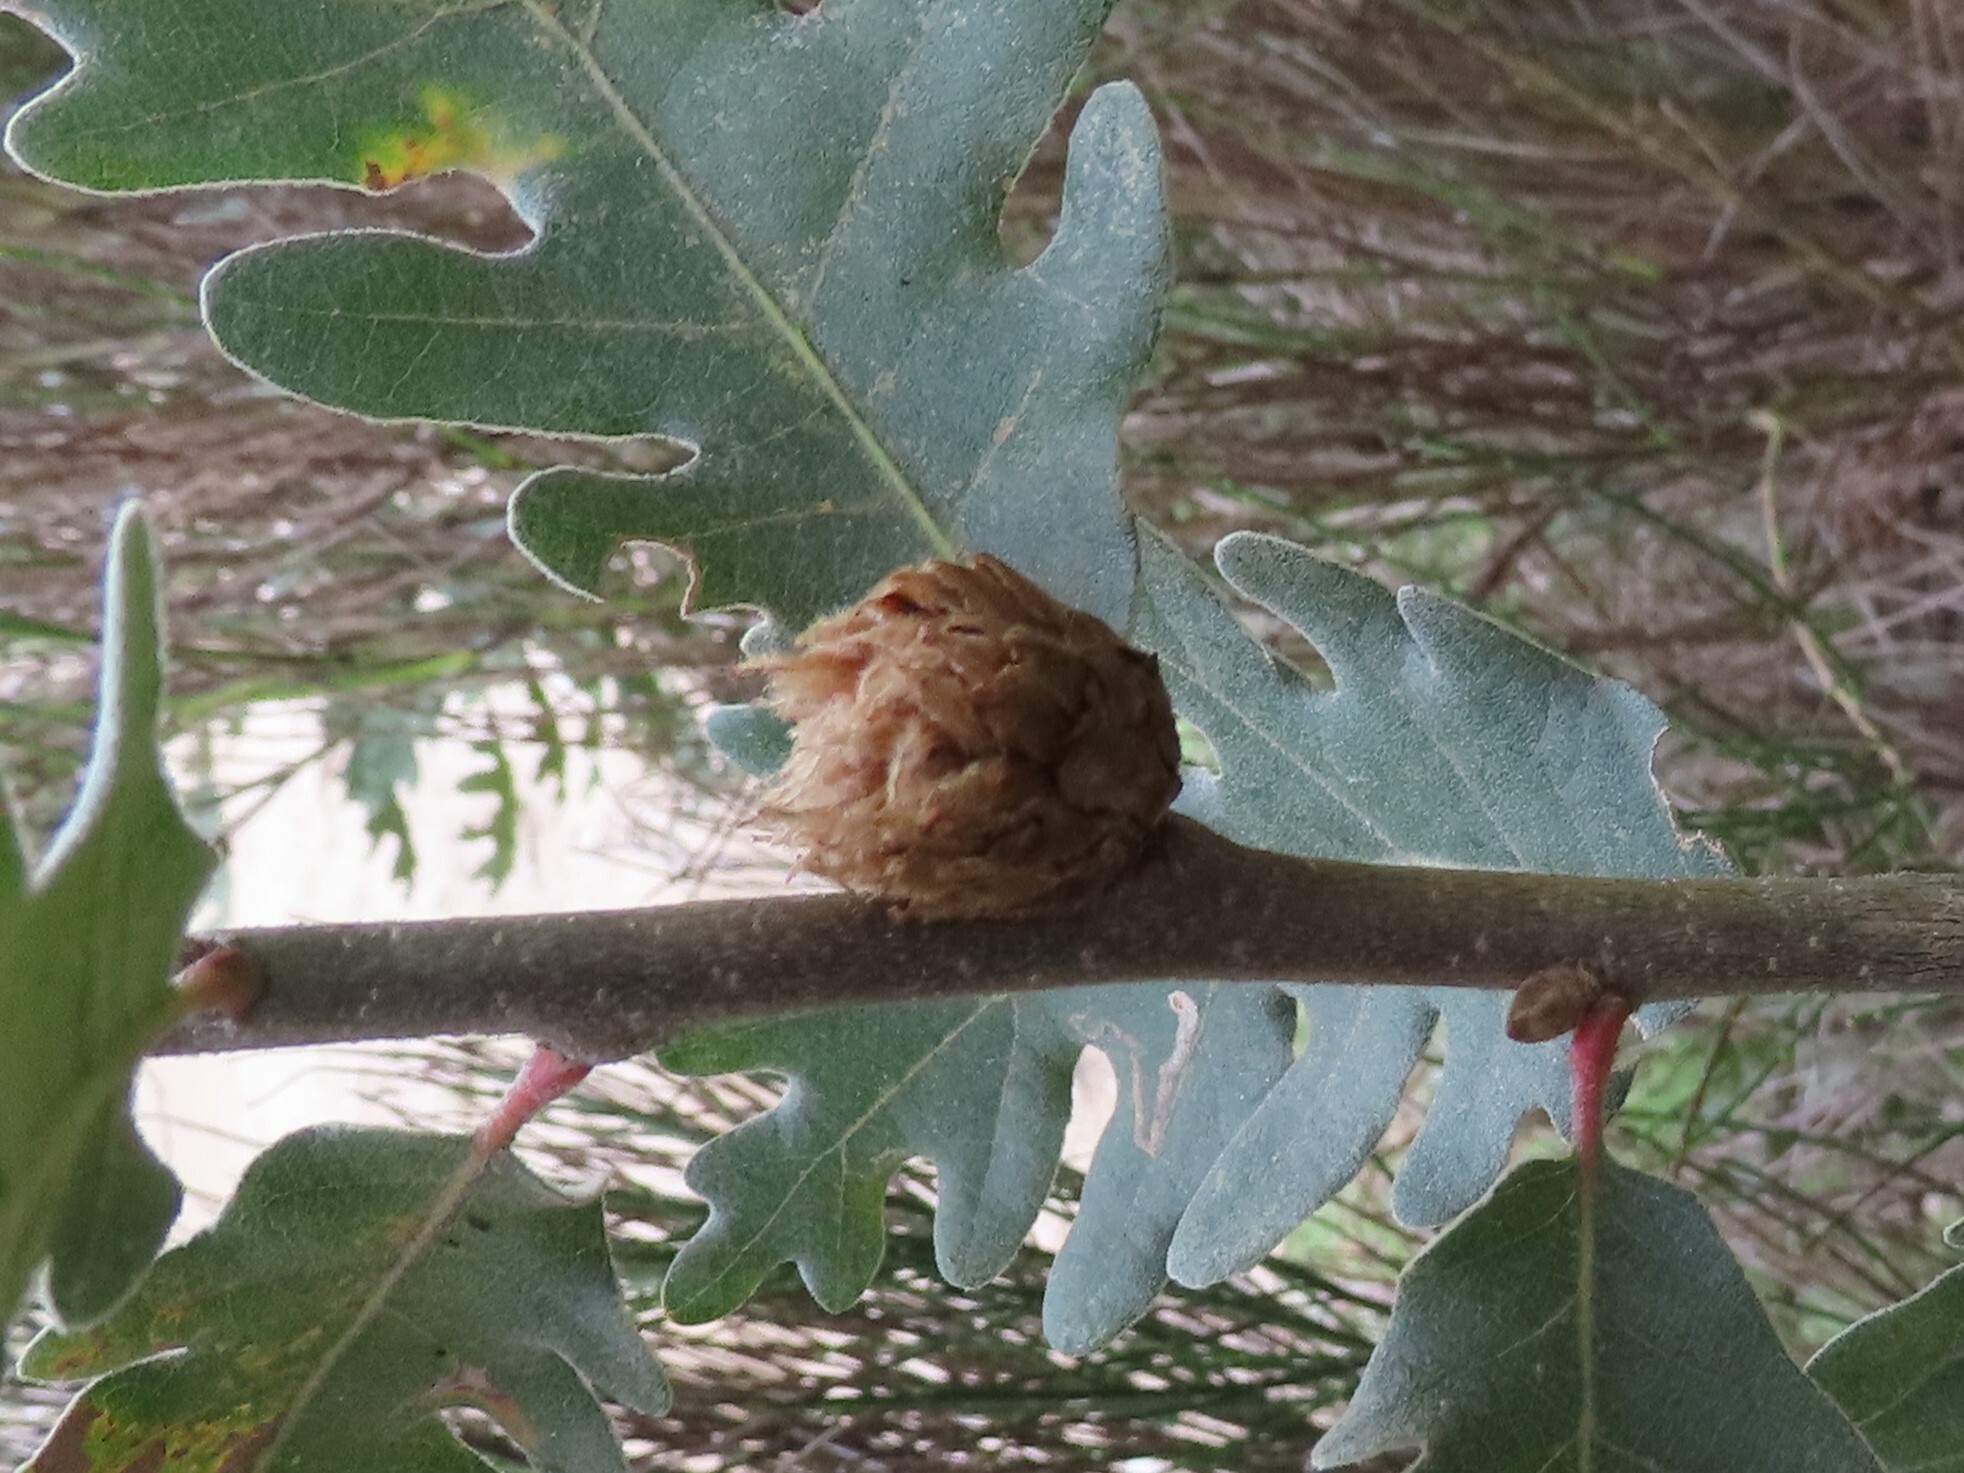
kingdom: Animalia
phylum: Arthropoda
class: Insecta
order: Hymenoptera
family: Cynipidae
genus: Andricus
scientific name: Andricus foecundatrix
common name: Artichoke gall
